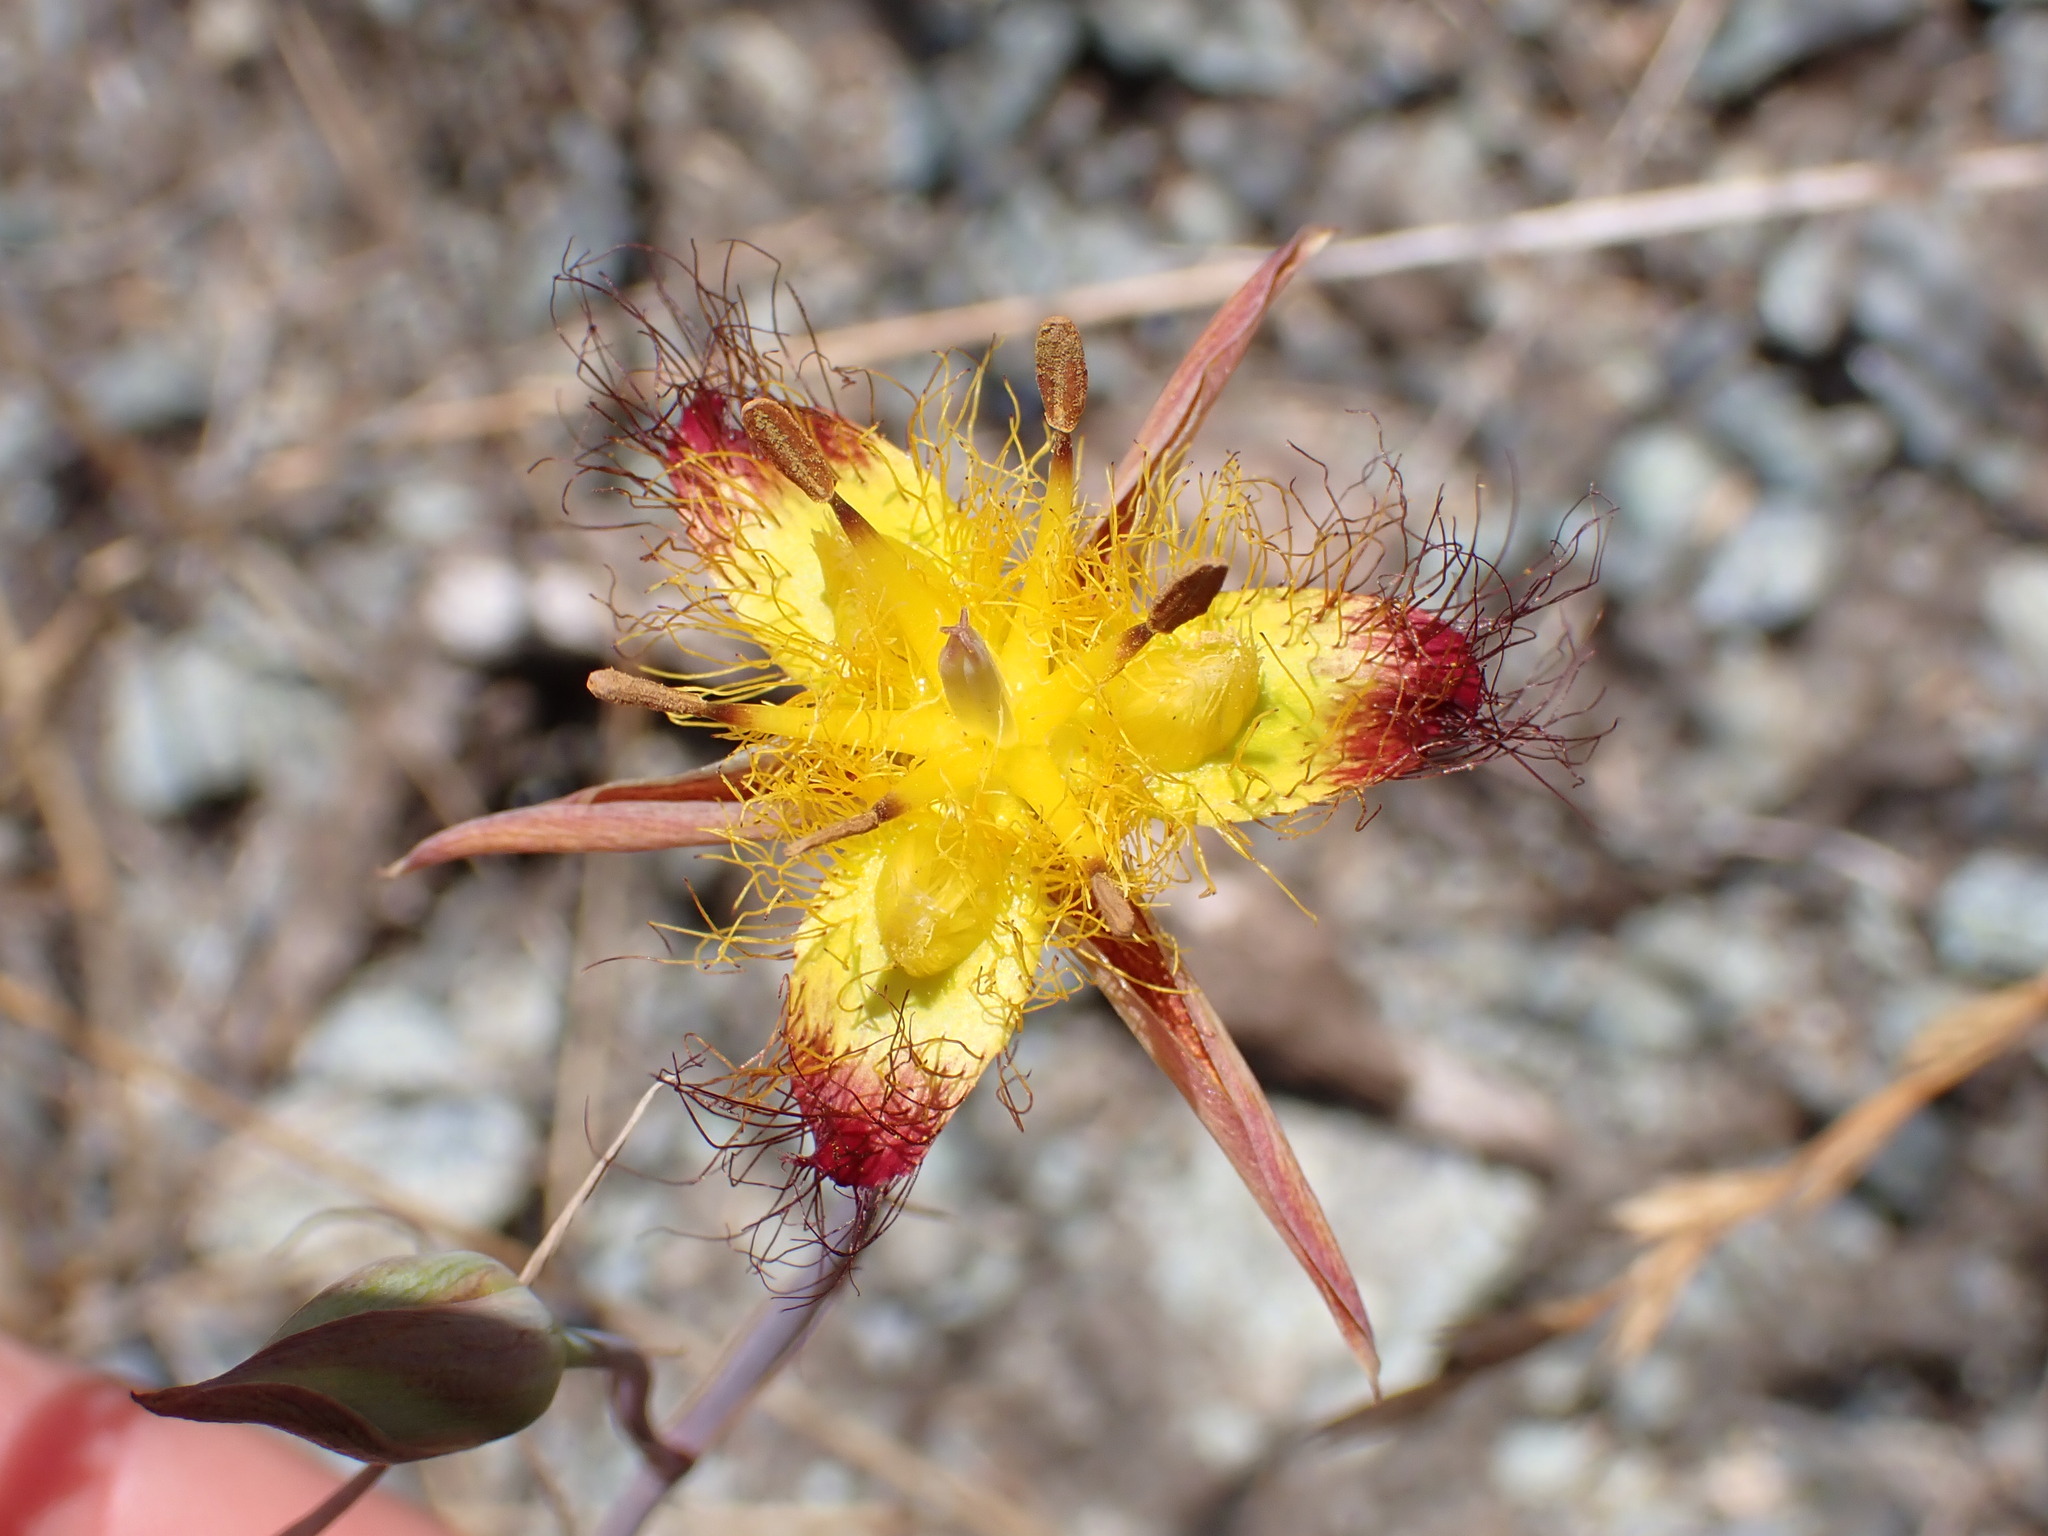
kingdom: Plantae
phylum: Tracheophyta
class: Liliopsida
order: Liliales
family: Liliaceae
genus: Calochortus
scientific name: Calochortus obispoensis
